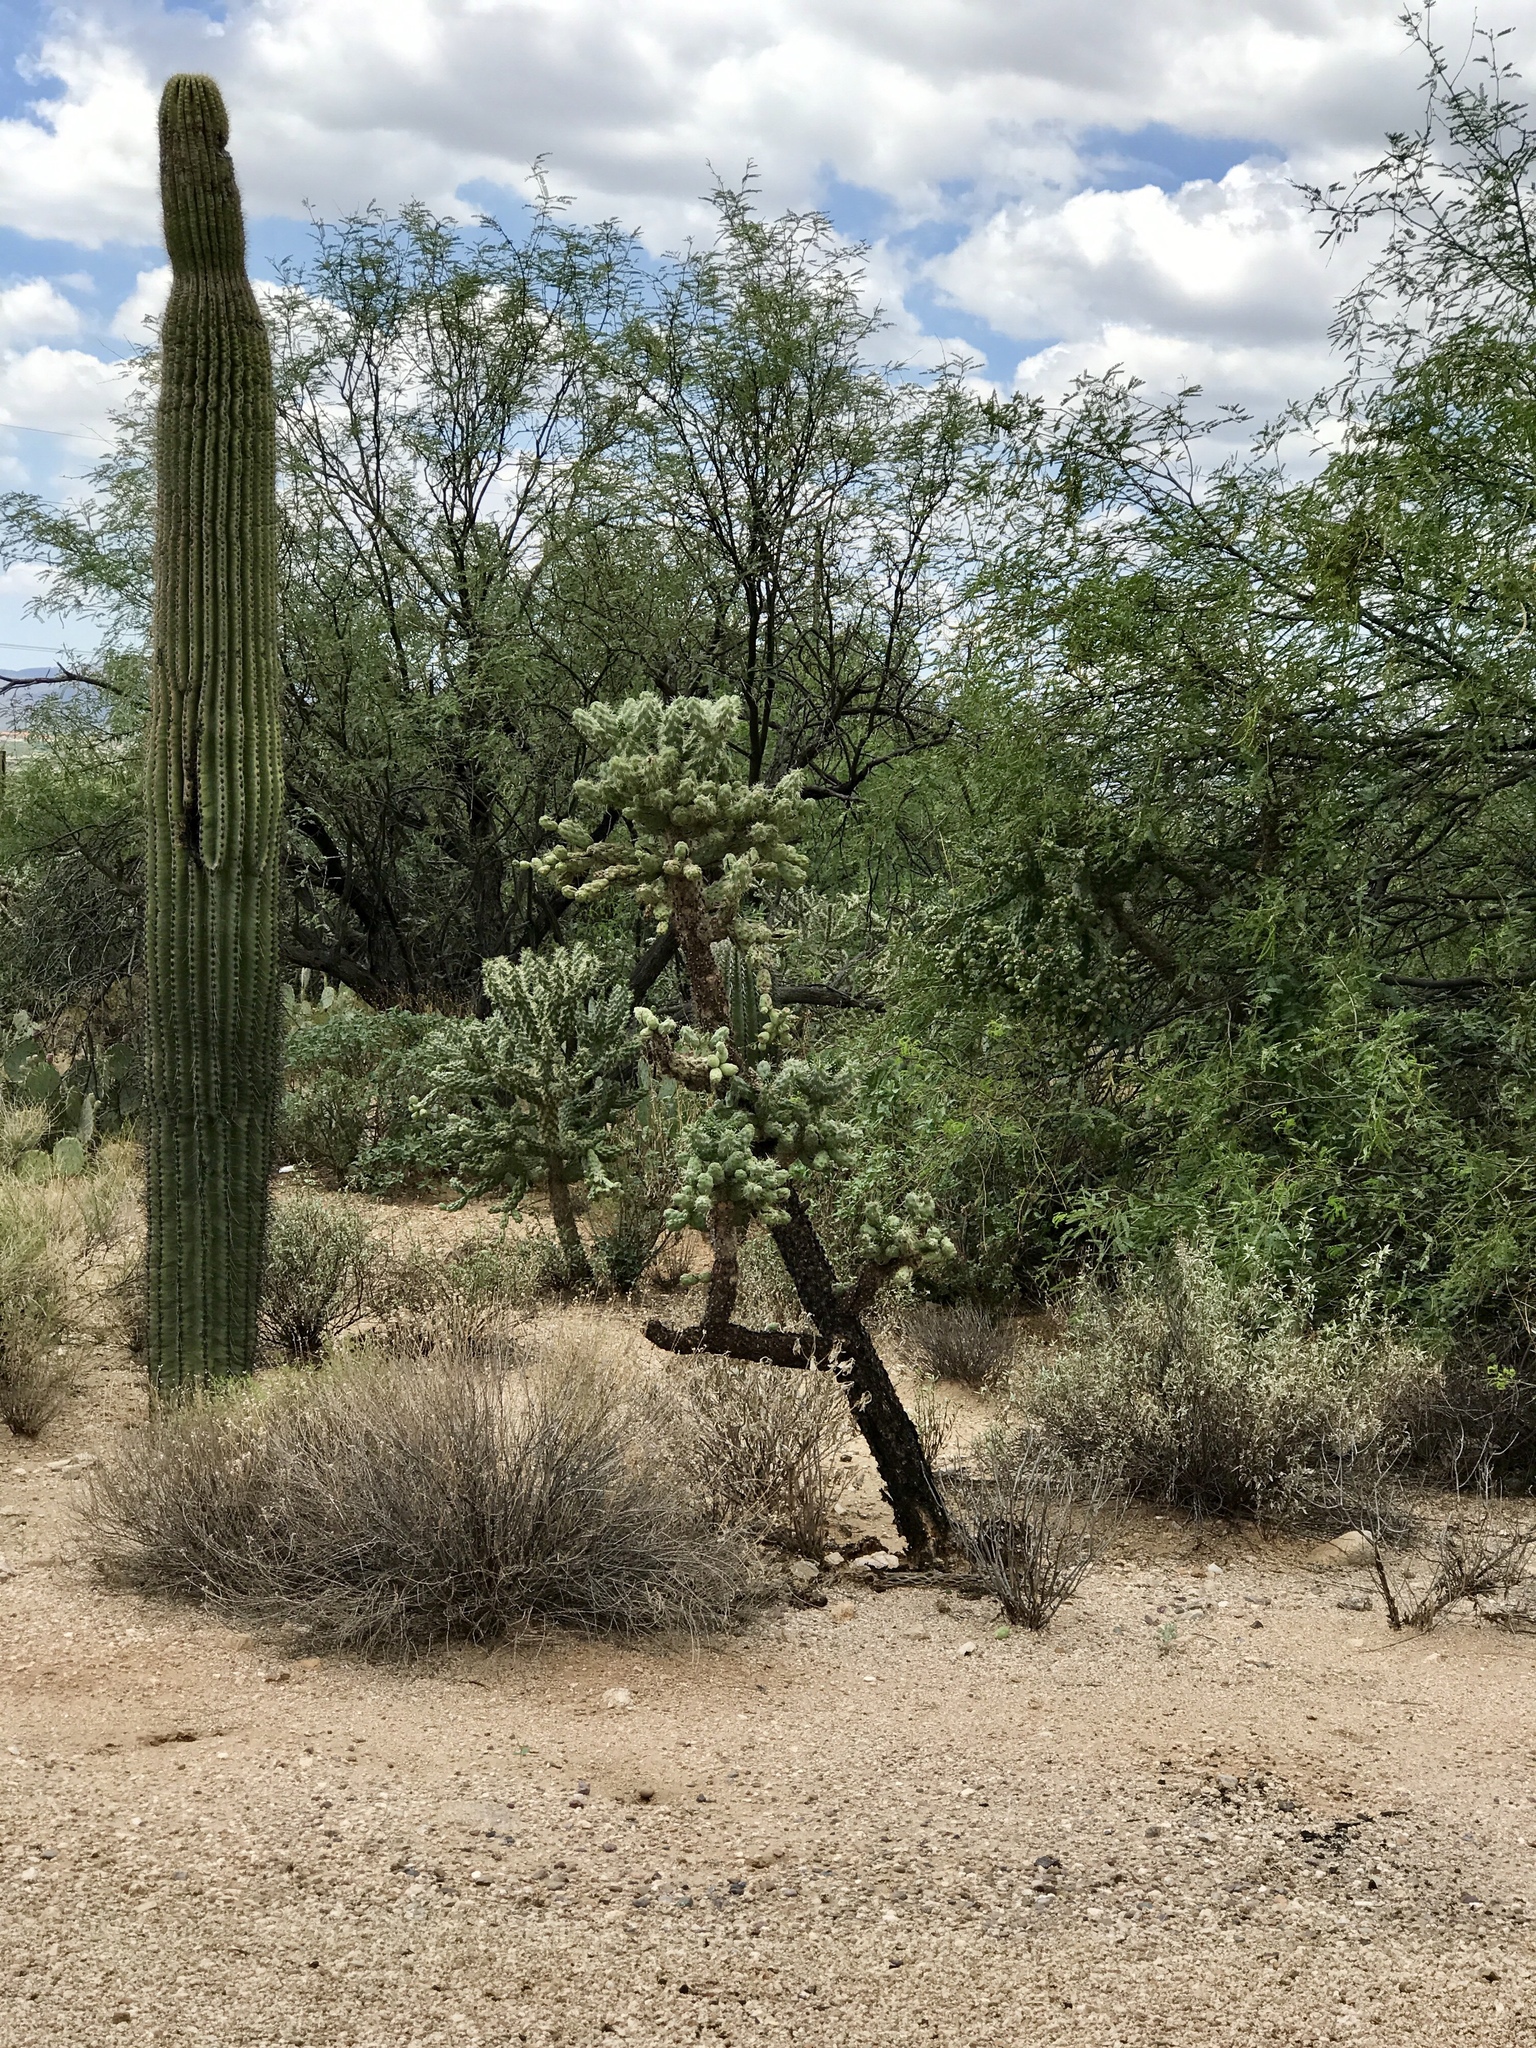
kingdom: Plantae
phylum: Tracheophyta
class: Magnoliopsida
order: Caryophyllales
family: Cactaceae
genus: Cylindropuntia
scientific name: Cylindropuntia fulgida
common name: Jumping cholla
